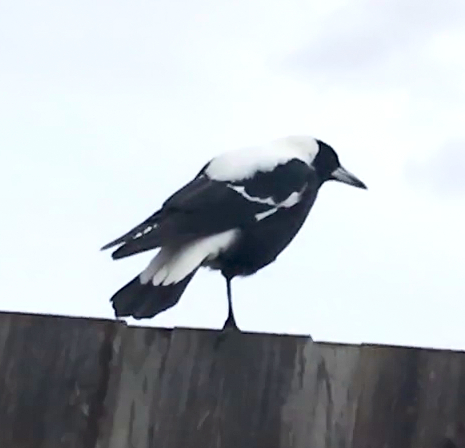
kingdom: Animalia
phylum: Chordata
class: Aves
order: Passeriformes
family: Cracticidae
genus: Gymnorhina
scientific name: Gymnorhina tibicen
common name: Australian magpie
